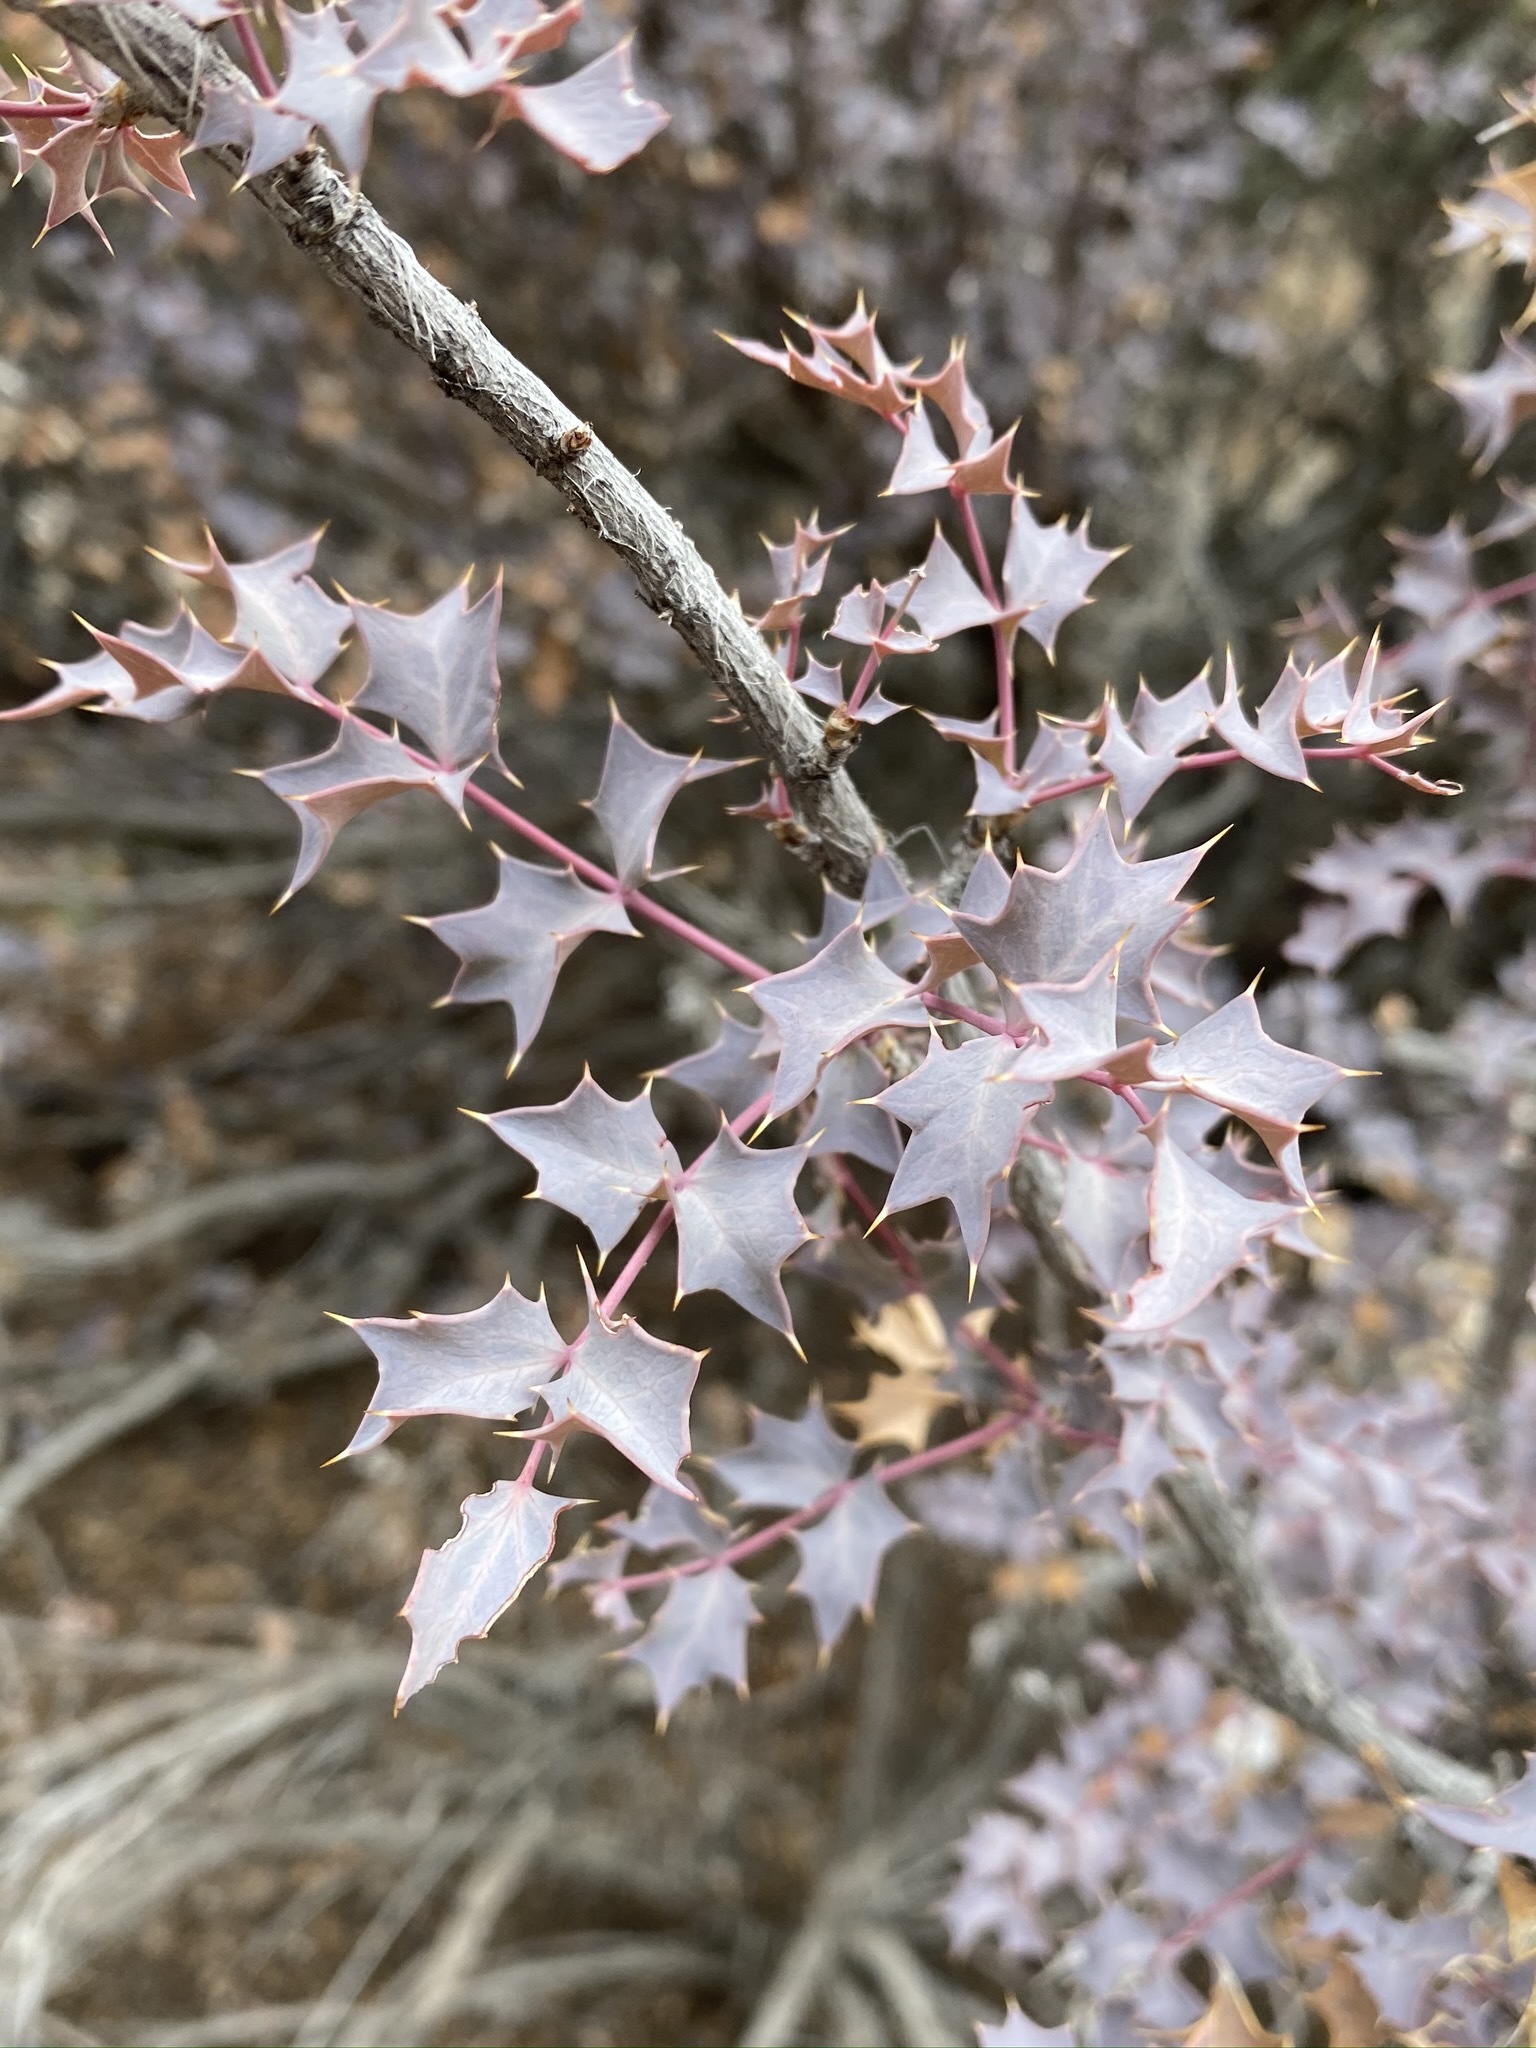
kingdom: Plantae
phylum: Tracheophyta
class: Magnoliopsida
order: Ranunculales
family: Berberidaceae
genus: Alloberberis
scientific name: Alloberberis fremontii
